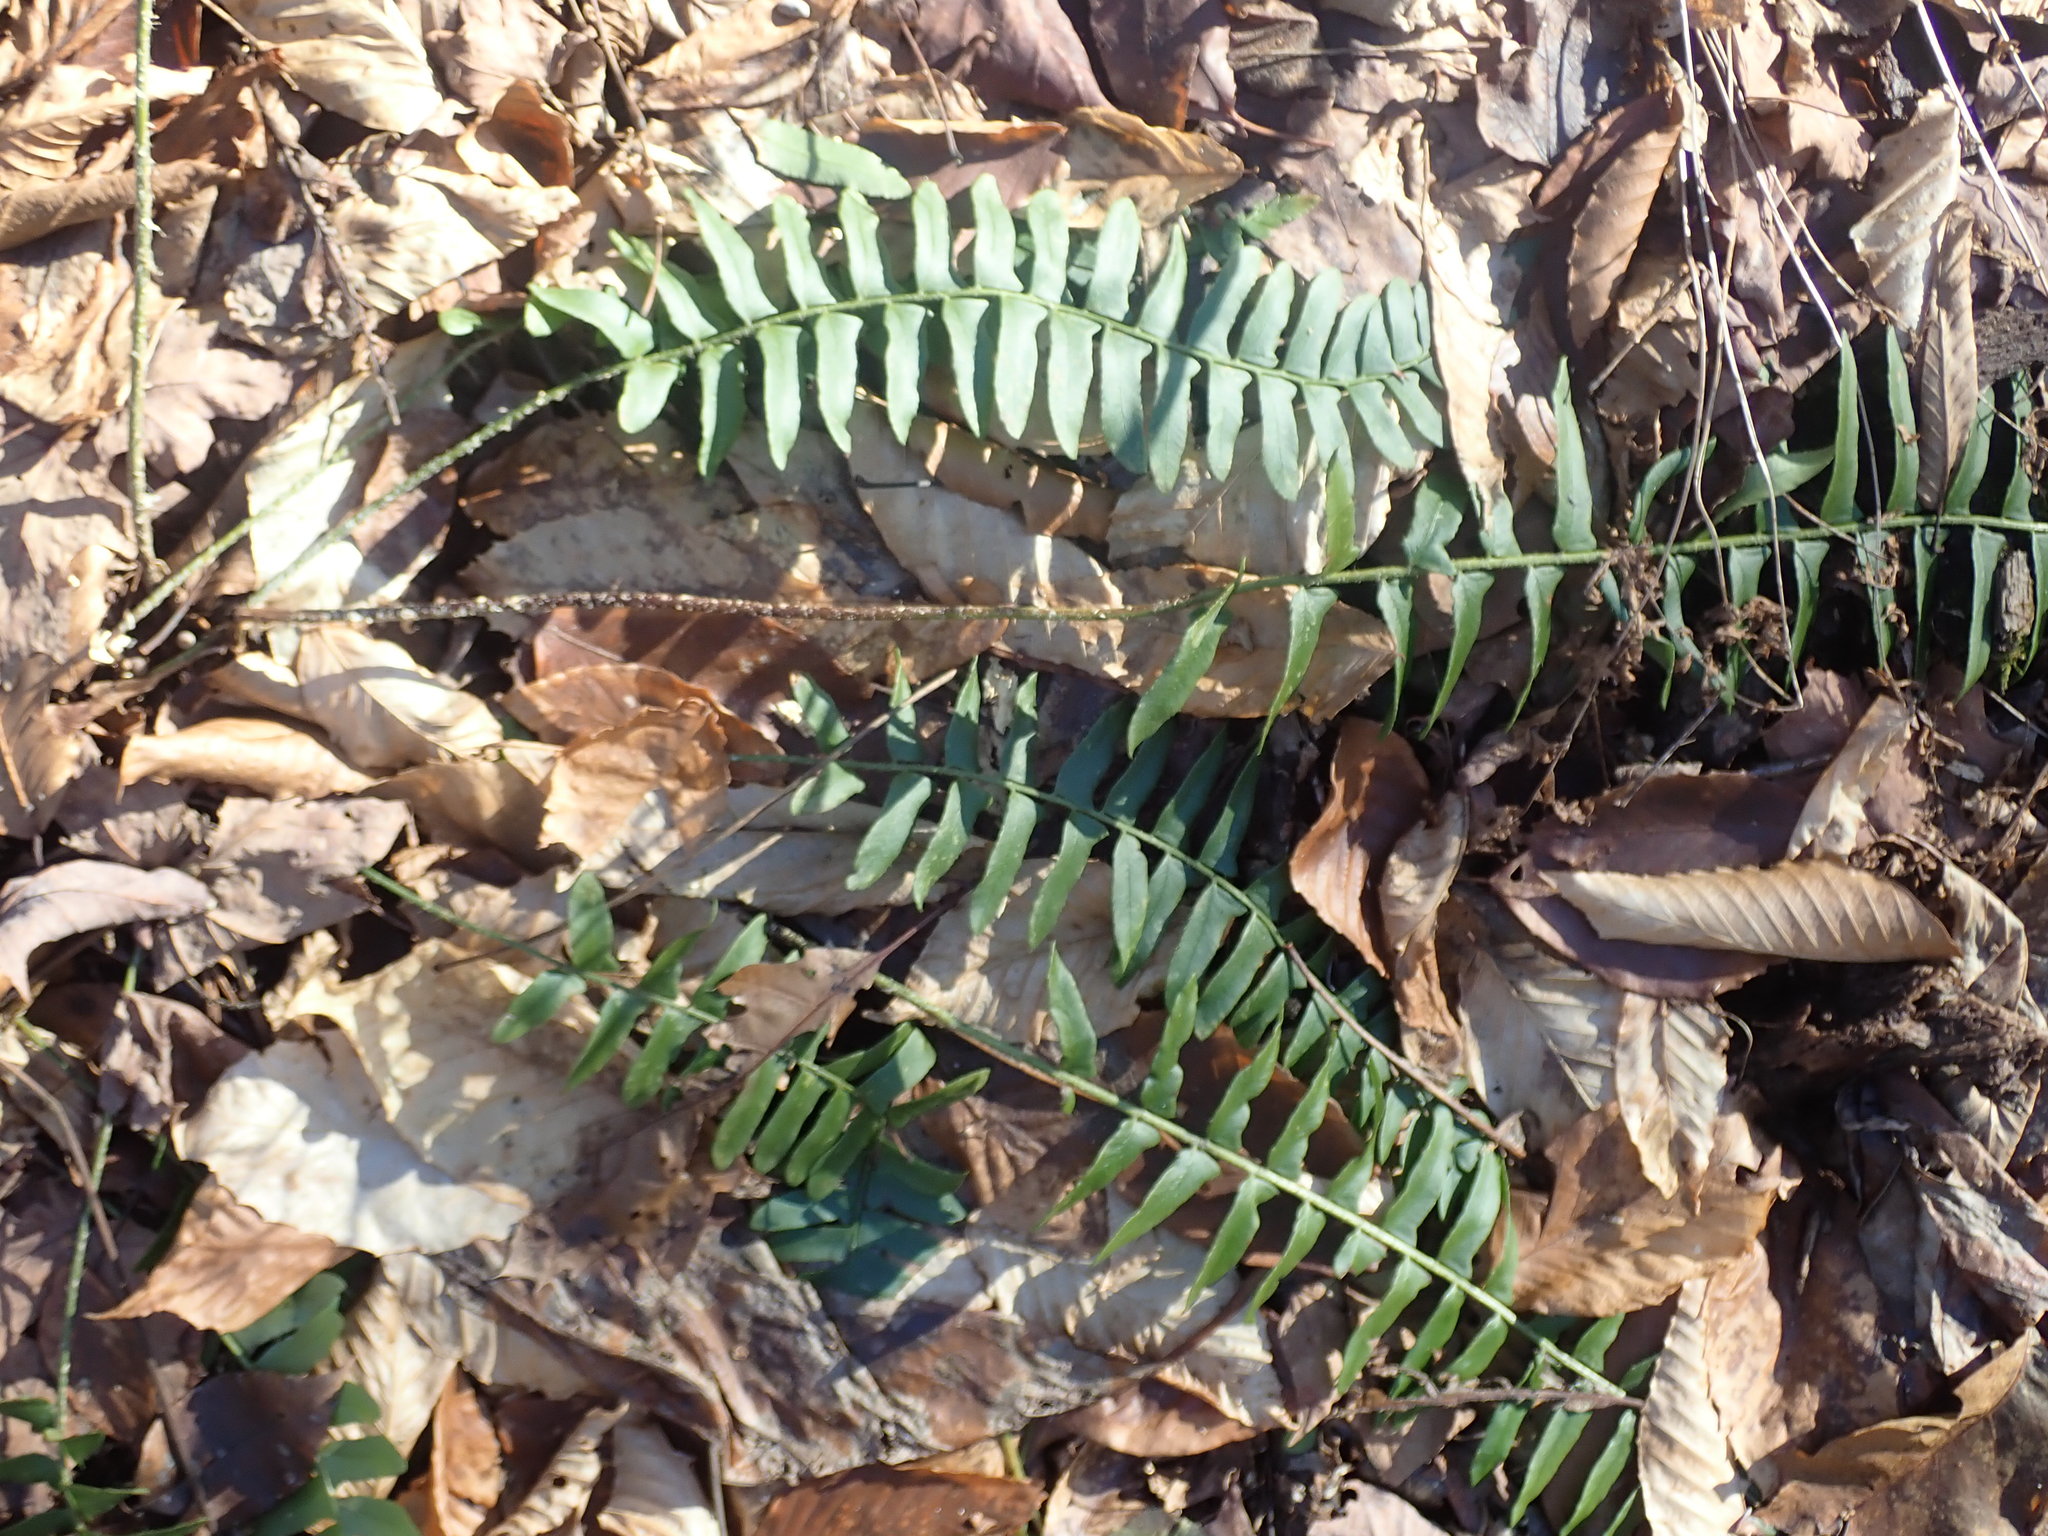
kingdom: Plantae
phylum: Tracheophyta
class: Polypodiopsida
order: Polypodiales
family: Dryopteridaceae
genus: Polystichum
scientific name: Polystichum acrostichoides
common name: Christmas fern
